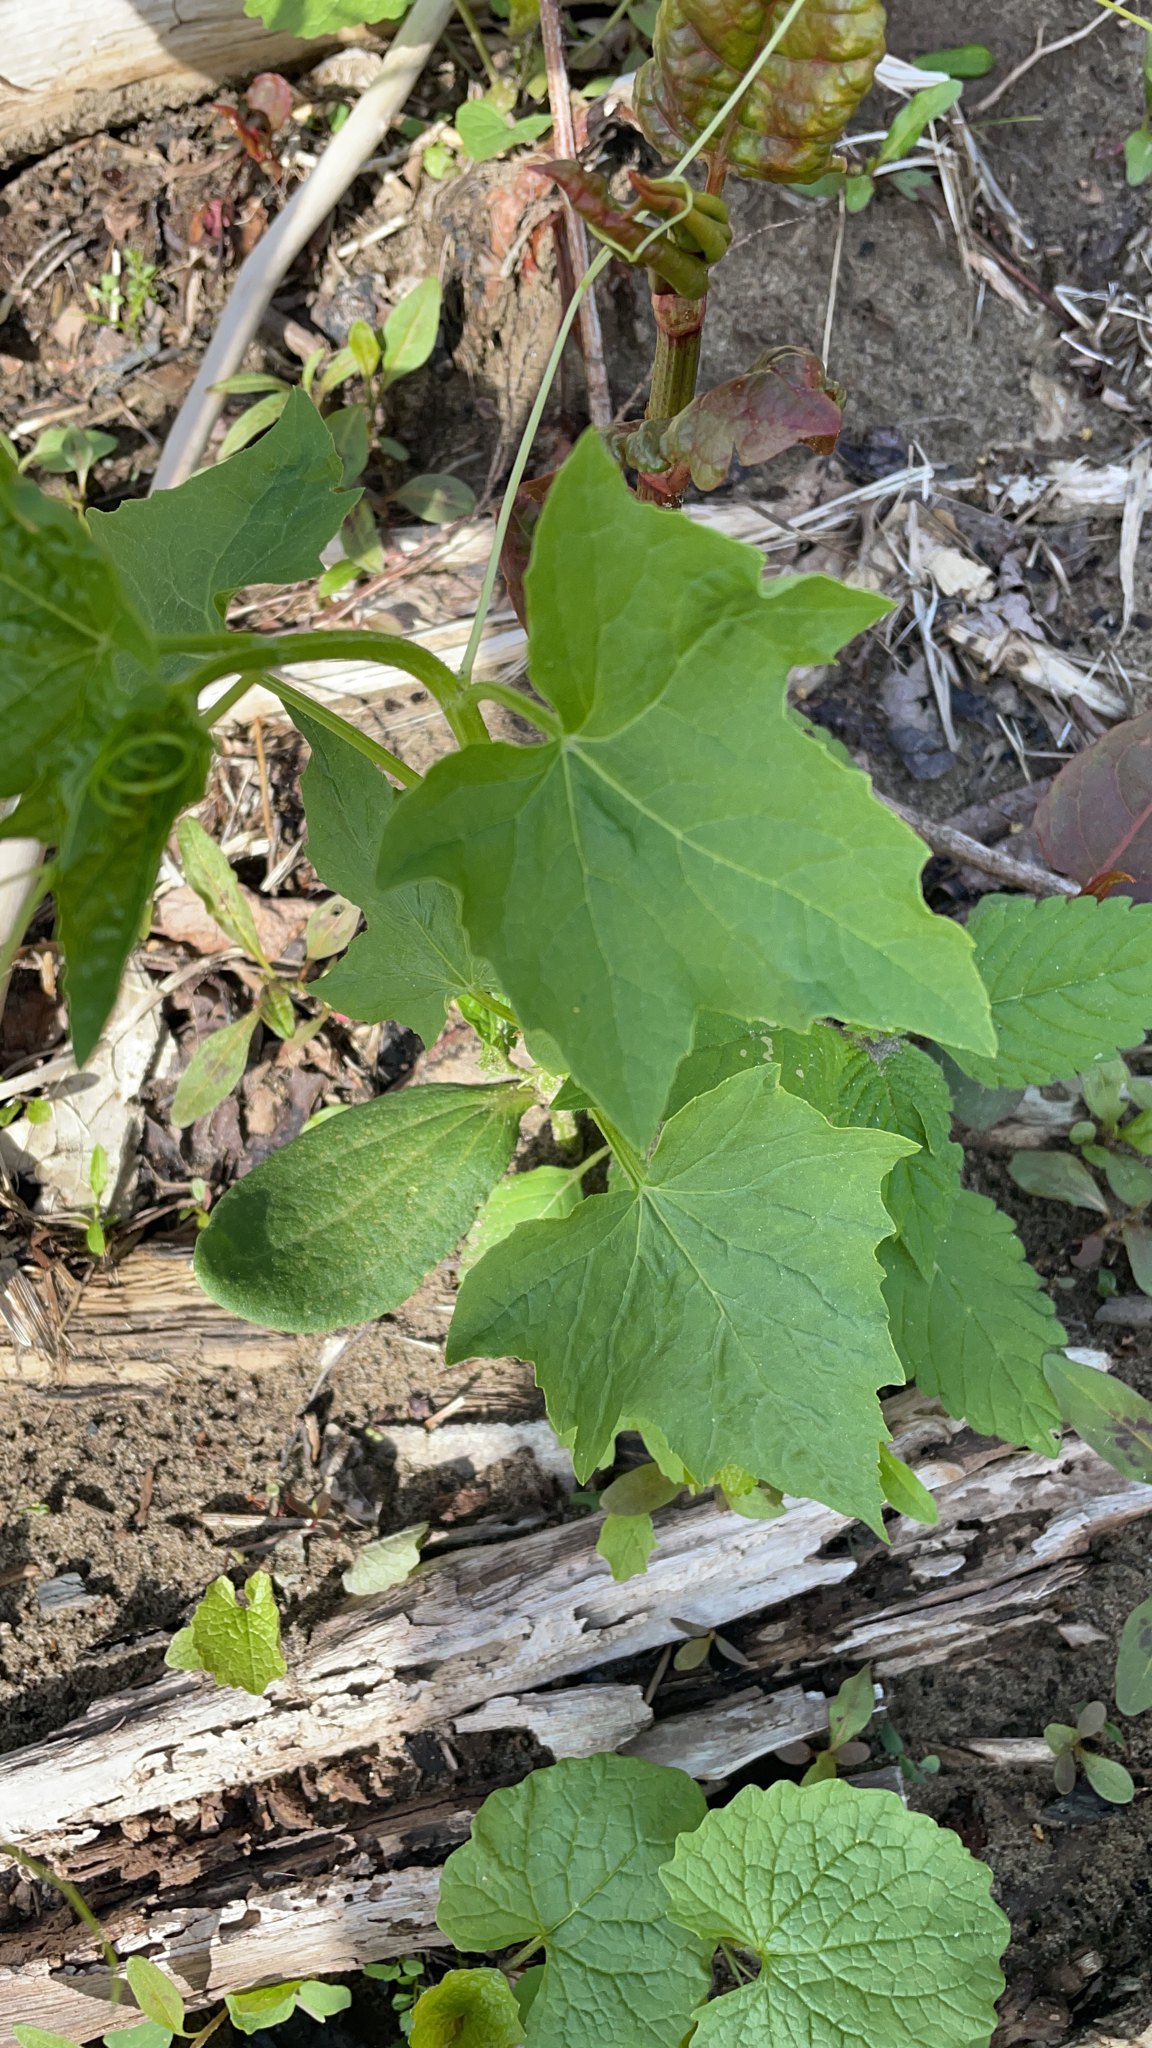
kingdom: Plantae
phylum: Tracheophyta
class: Magnoliopsida
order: Cucurbitales
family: Cucurbitaceae
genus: Echinocystis
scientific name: Echinocystis lobata
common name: Wild cucumber
